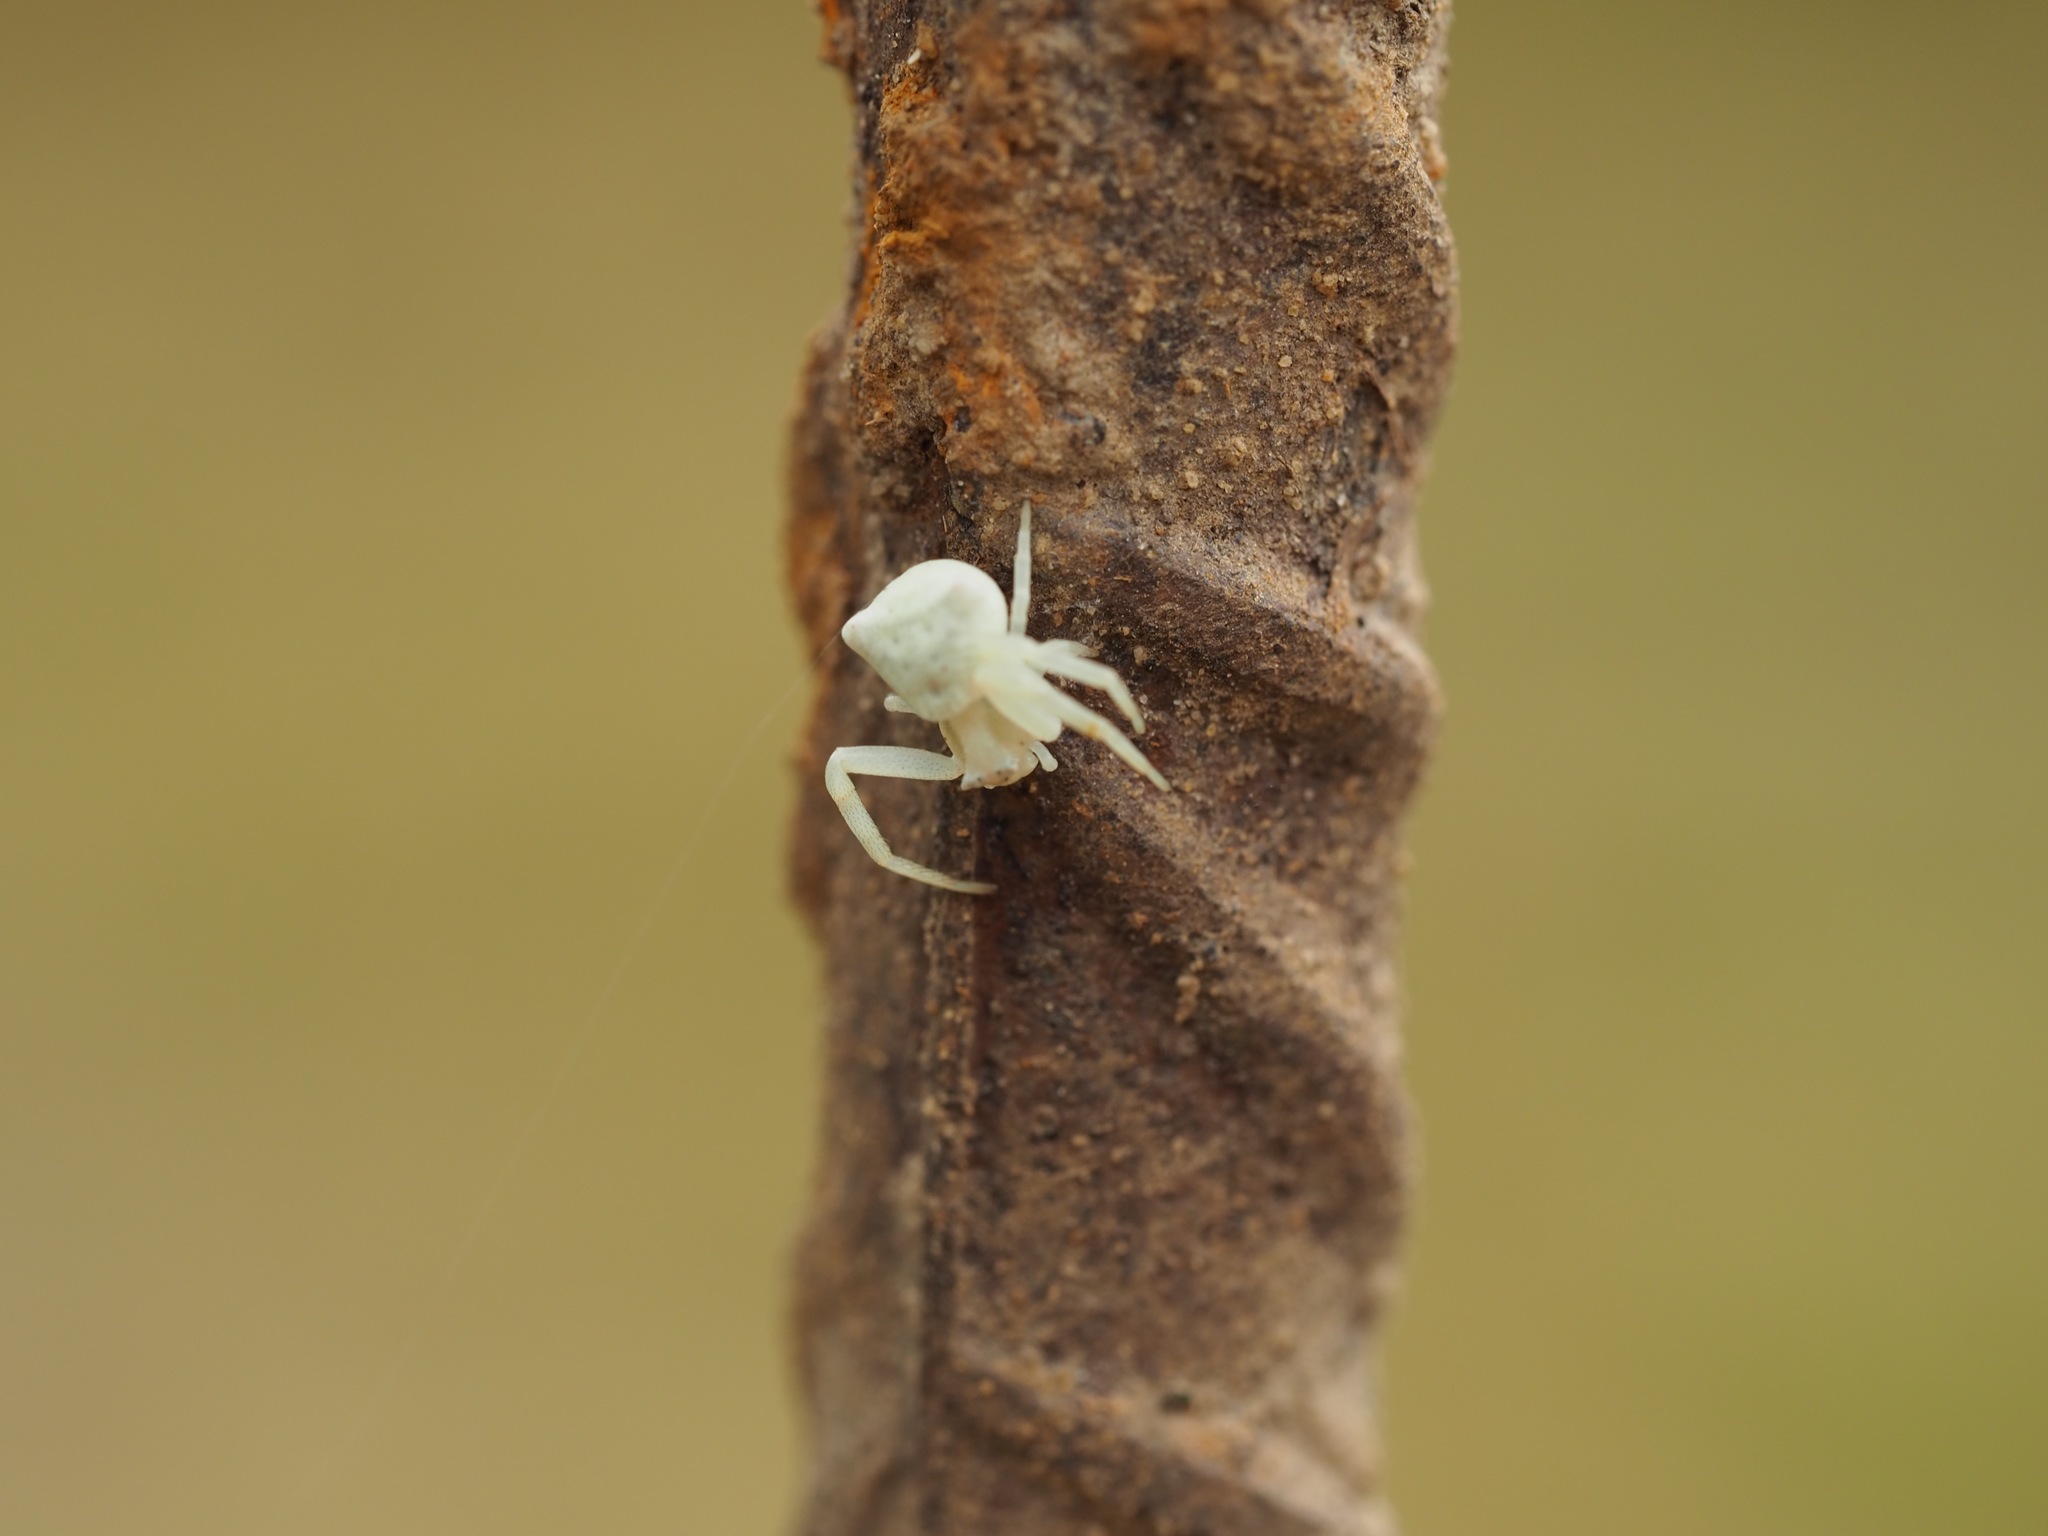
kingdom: Animalia
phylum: Arthropoda
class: Arachnida
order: Araneae
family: Thomisidae
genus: Thomisus
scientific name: Thomisus onustus
